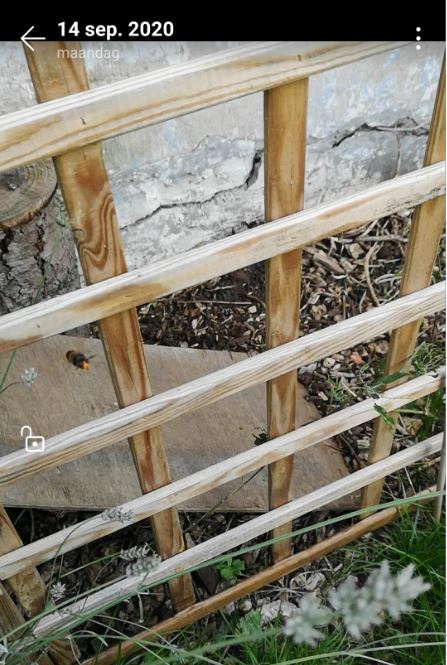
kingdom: Animalia
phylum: Arthropoda
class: Insecta
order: Hymenoptera
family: Vespidae
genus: Vespa
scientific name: Vespa velutina
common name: Asian hornet
